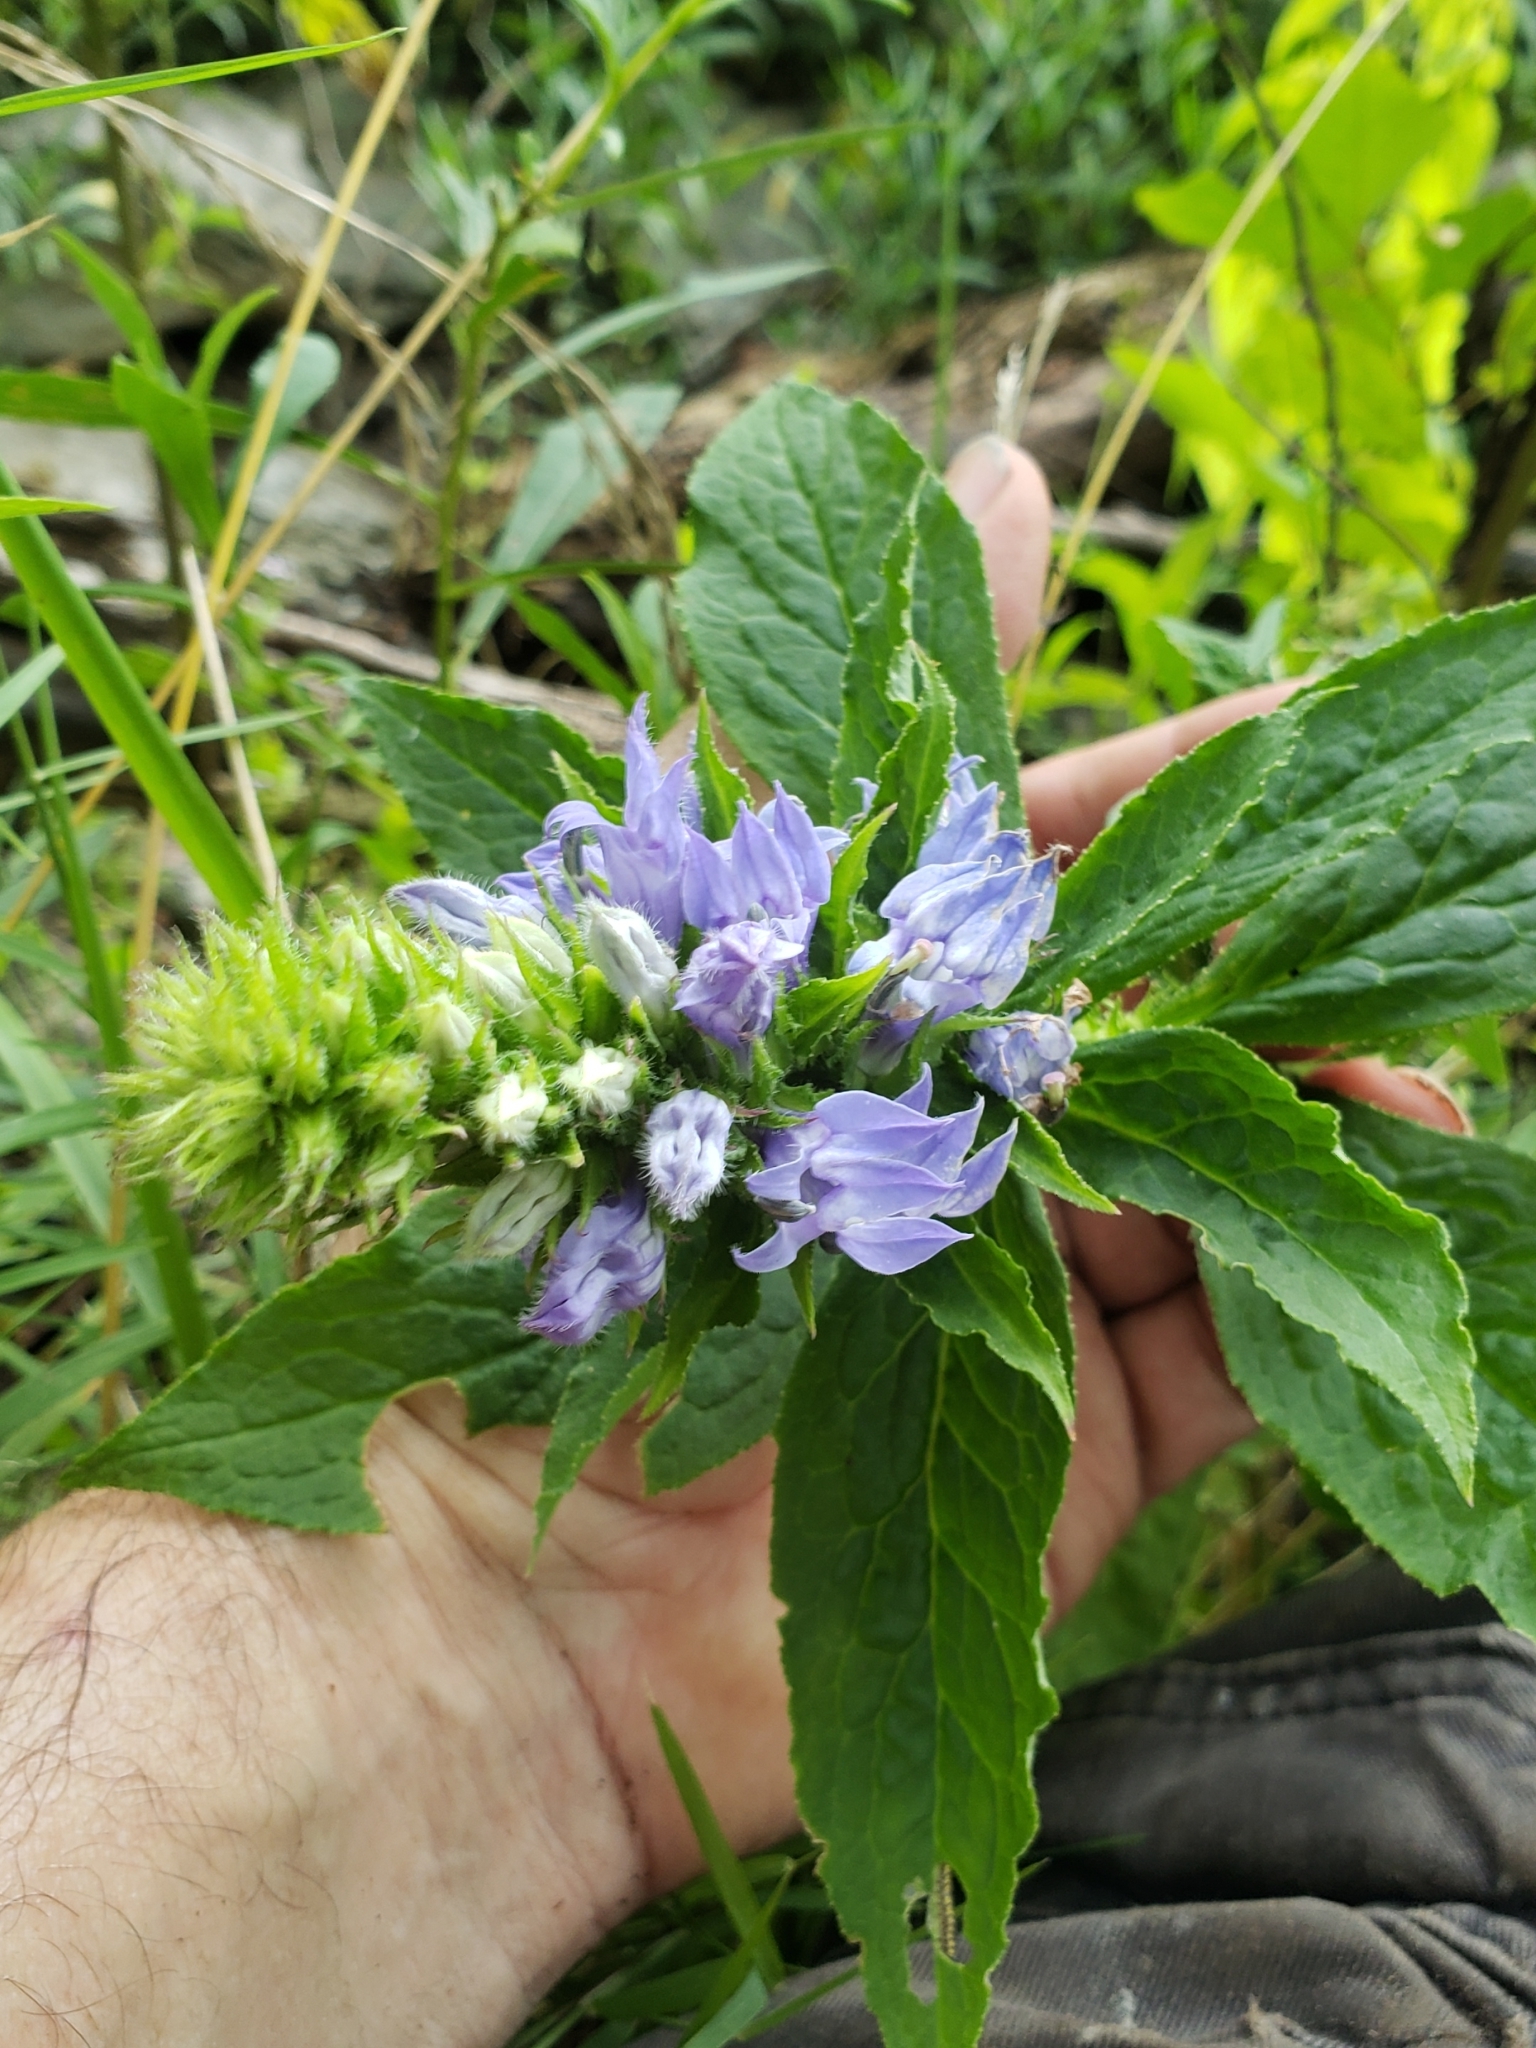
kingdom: Plantae
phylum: Tracheophyta
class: Magnoliopsida
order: Asterales
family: Campanulaceae
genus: Lobelia
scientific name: Lobelia siphilitica
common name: Great lobelia
